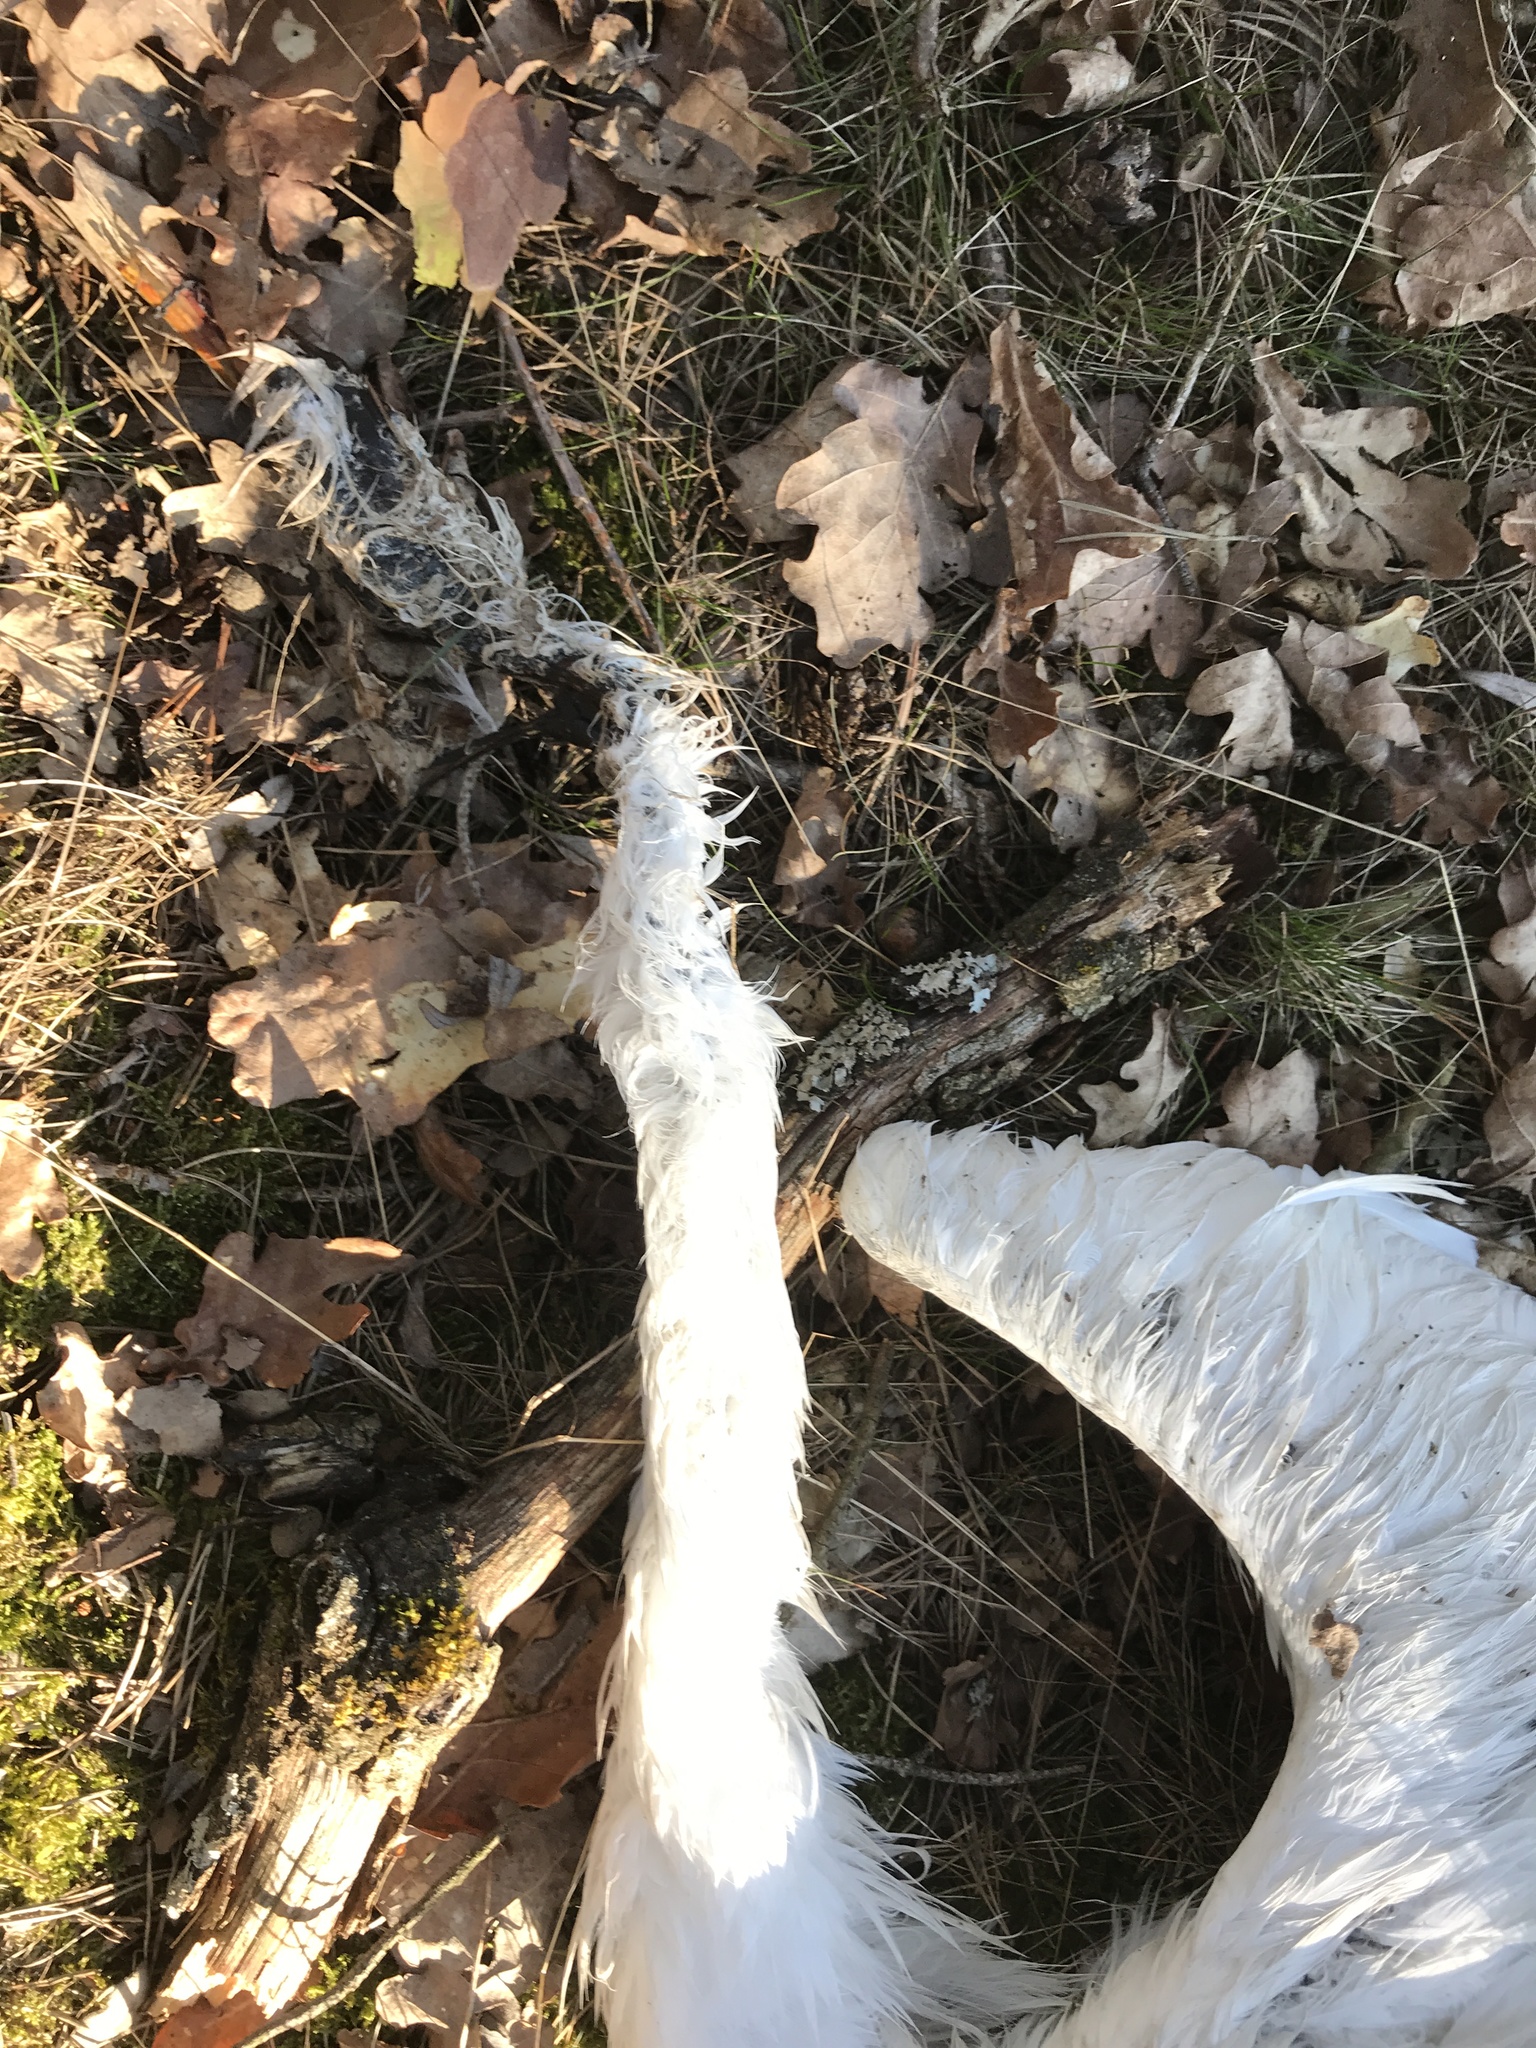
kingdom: Animalia
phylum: Chordata
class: Aves
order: Pelecaniformes
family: Ardeidae
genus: Ardea
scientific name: Ardea alba
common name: Great egret
